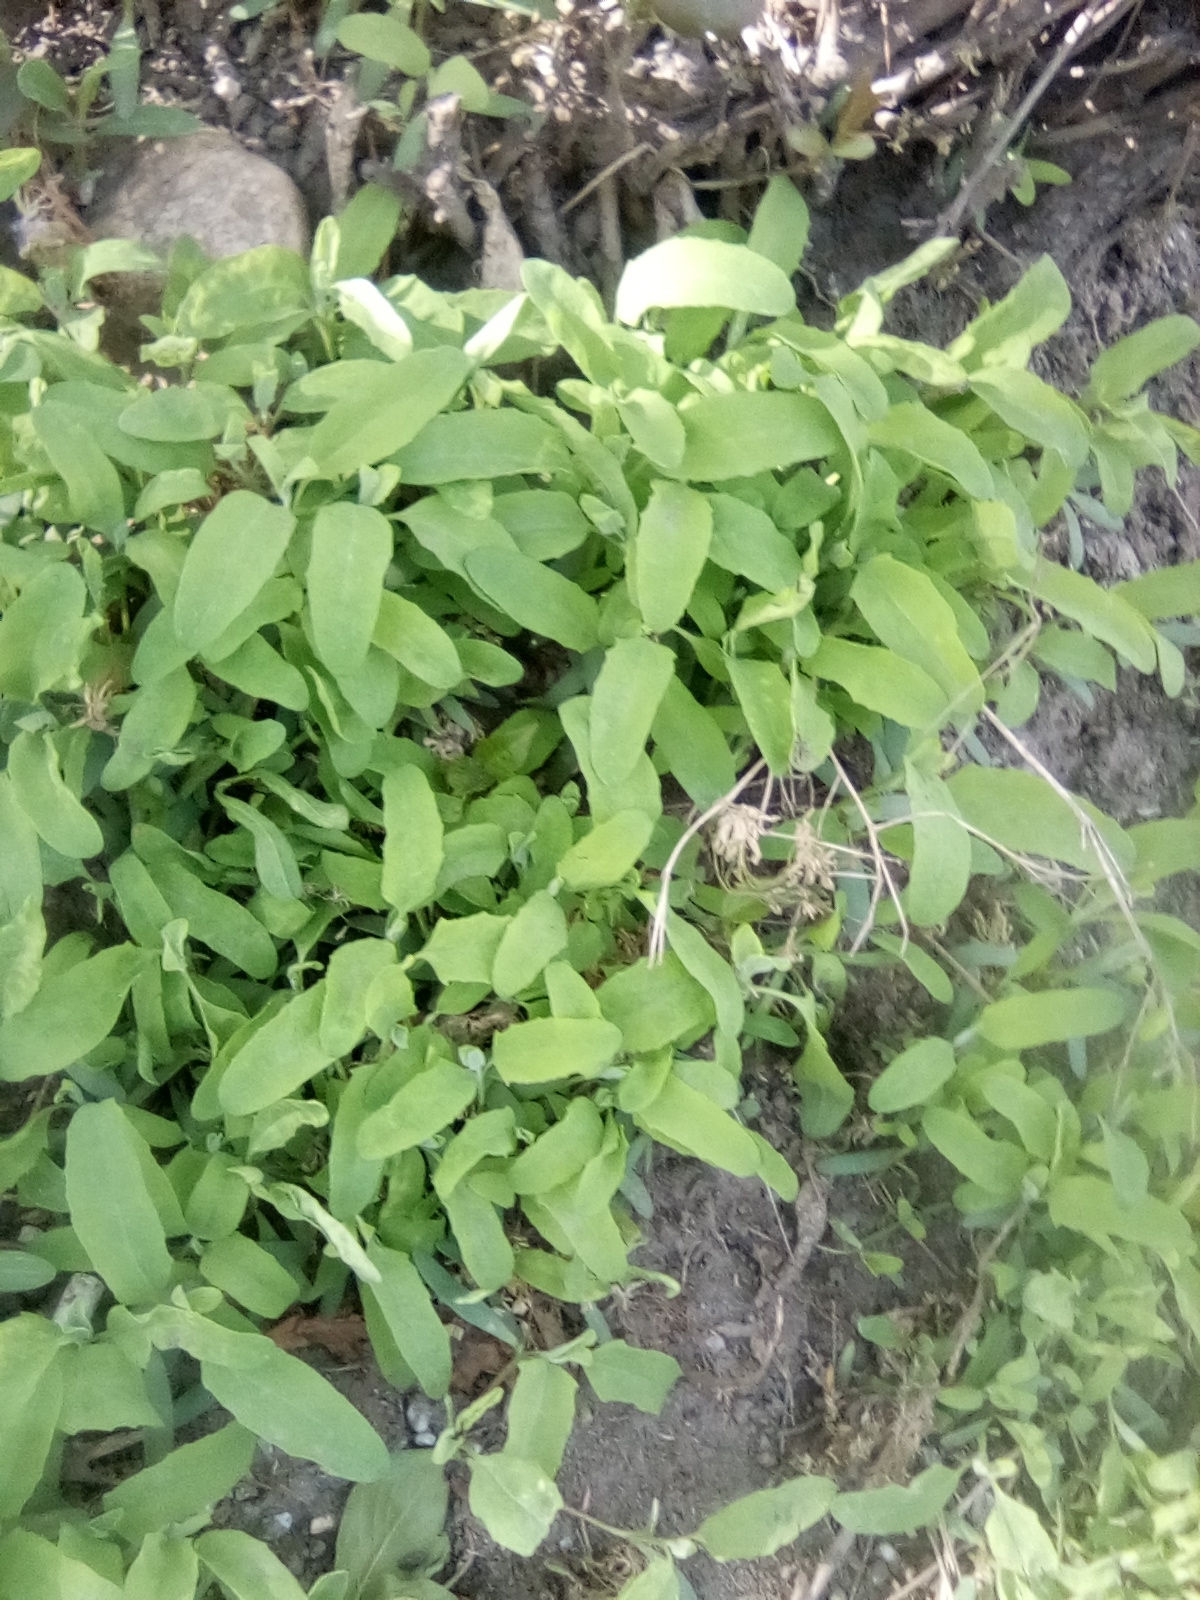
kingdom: Plantae
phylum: Tracheophyta
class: Magnoliopsida
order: Caryophyllales
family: Amaranthaceae
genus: Atriplex
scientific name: Atriplex patula
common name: Common orache
